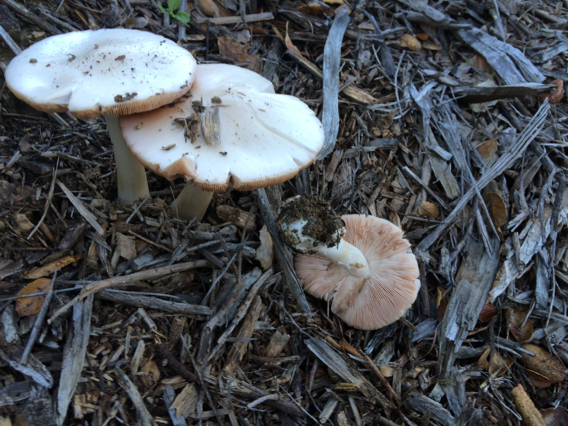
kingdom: Fungi
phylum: Basidiomycota
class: Agaricomycetes
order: Agaricales
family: Pluteaceae
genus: Volvopluteus
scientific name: Volvopluteus gloiocephalus
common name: Stubble rosegill
